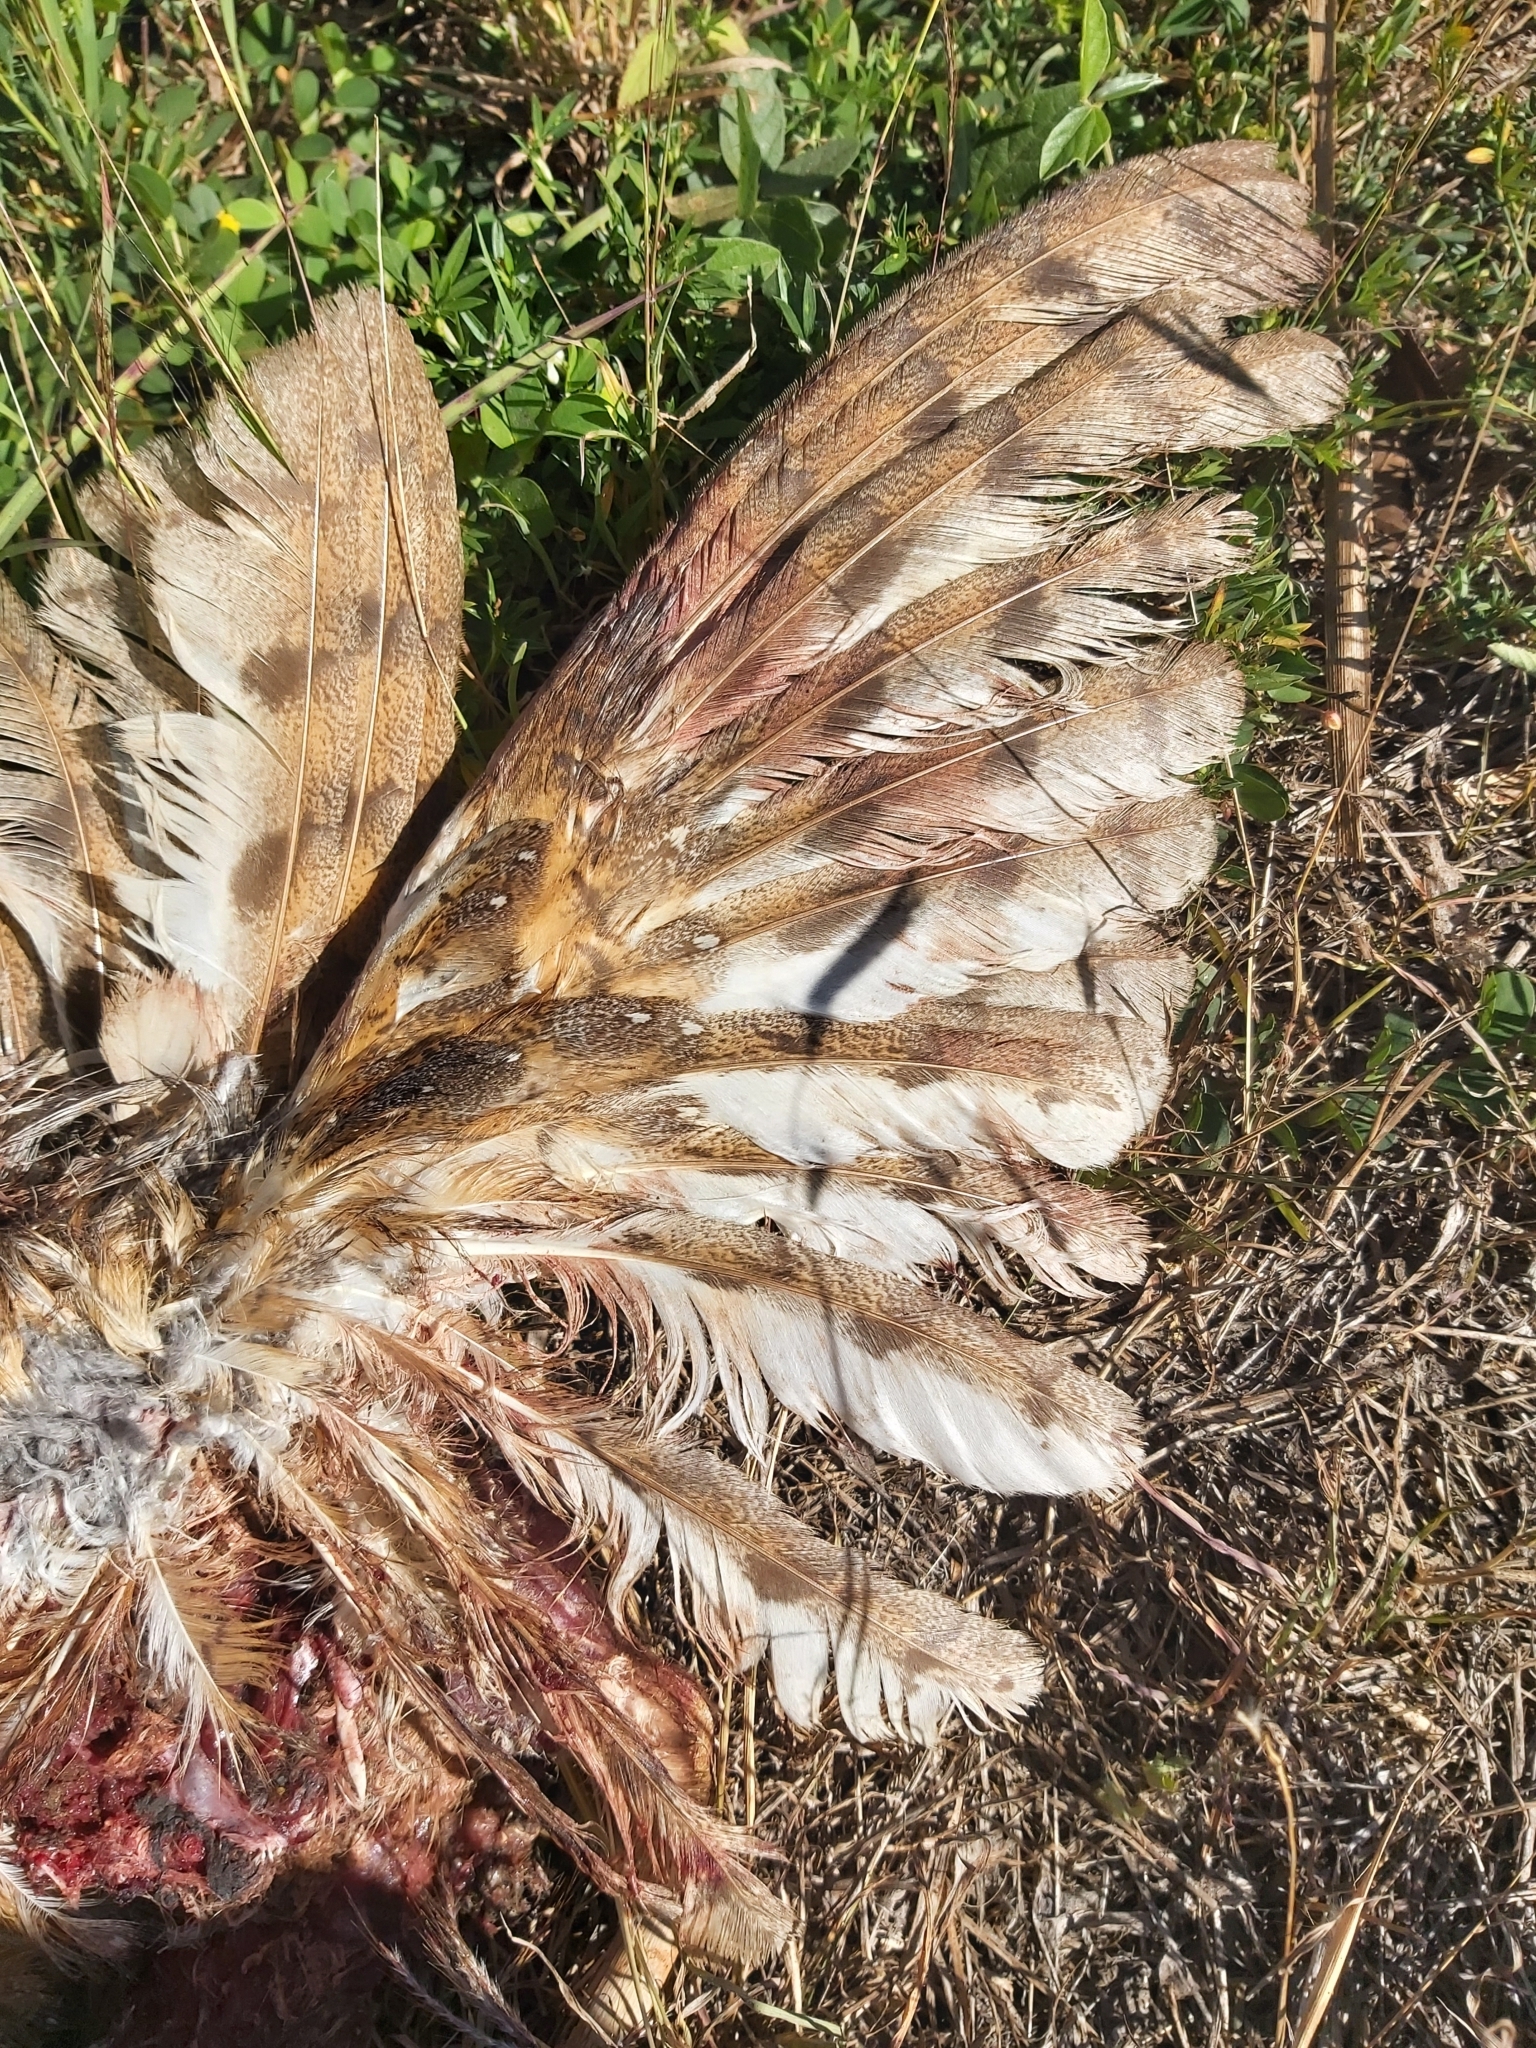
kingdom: Animalia
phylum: Chordata
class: Aves
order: Strigiformes
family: Tytonidae
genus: Tyto
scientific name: Tyto alba
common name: Barn owl
